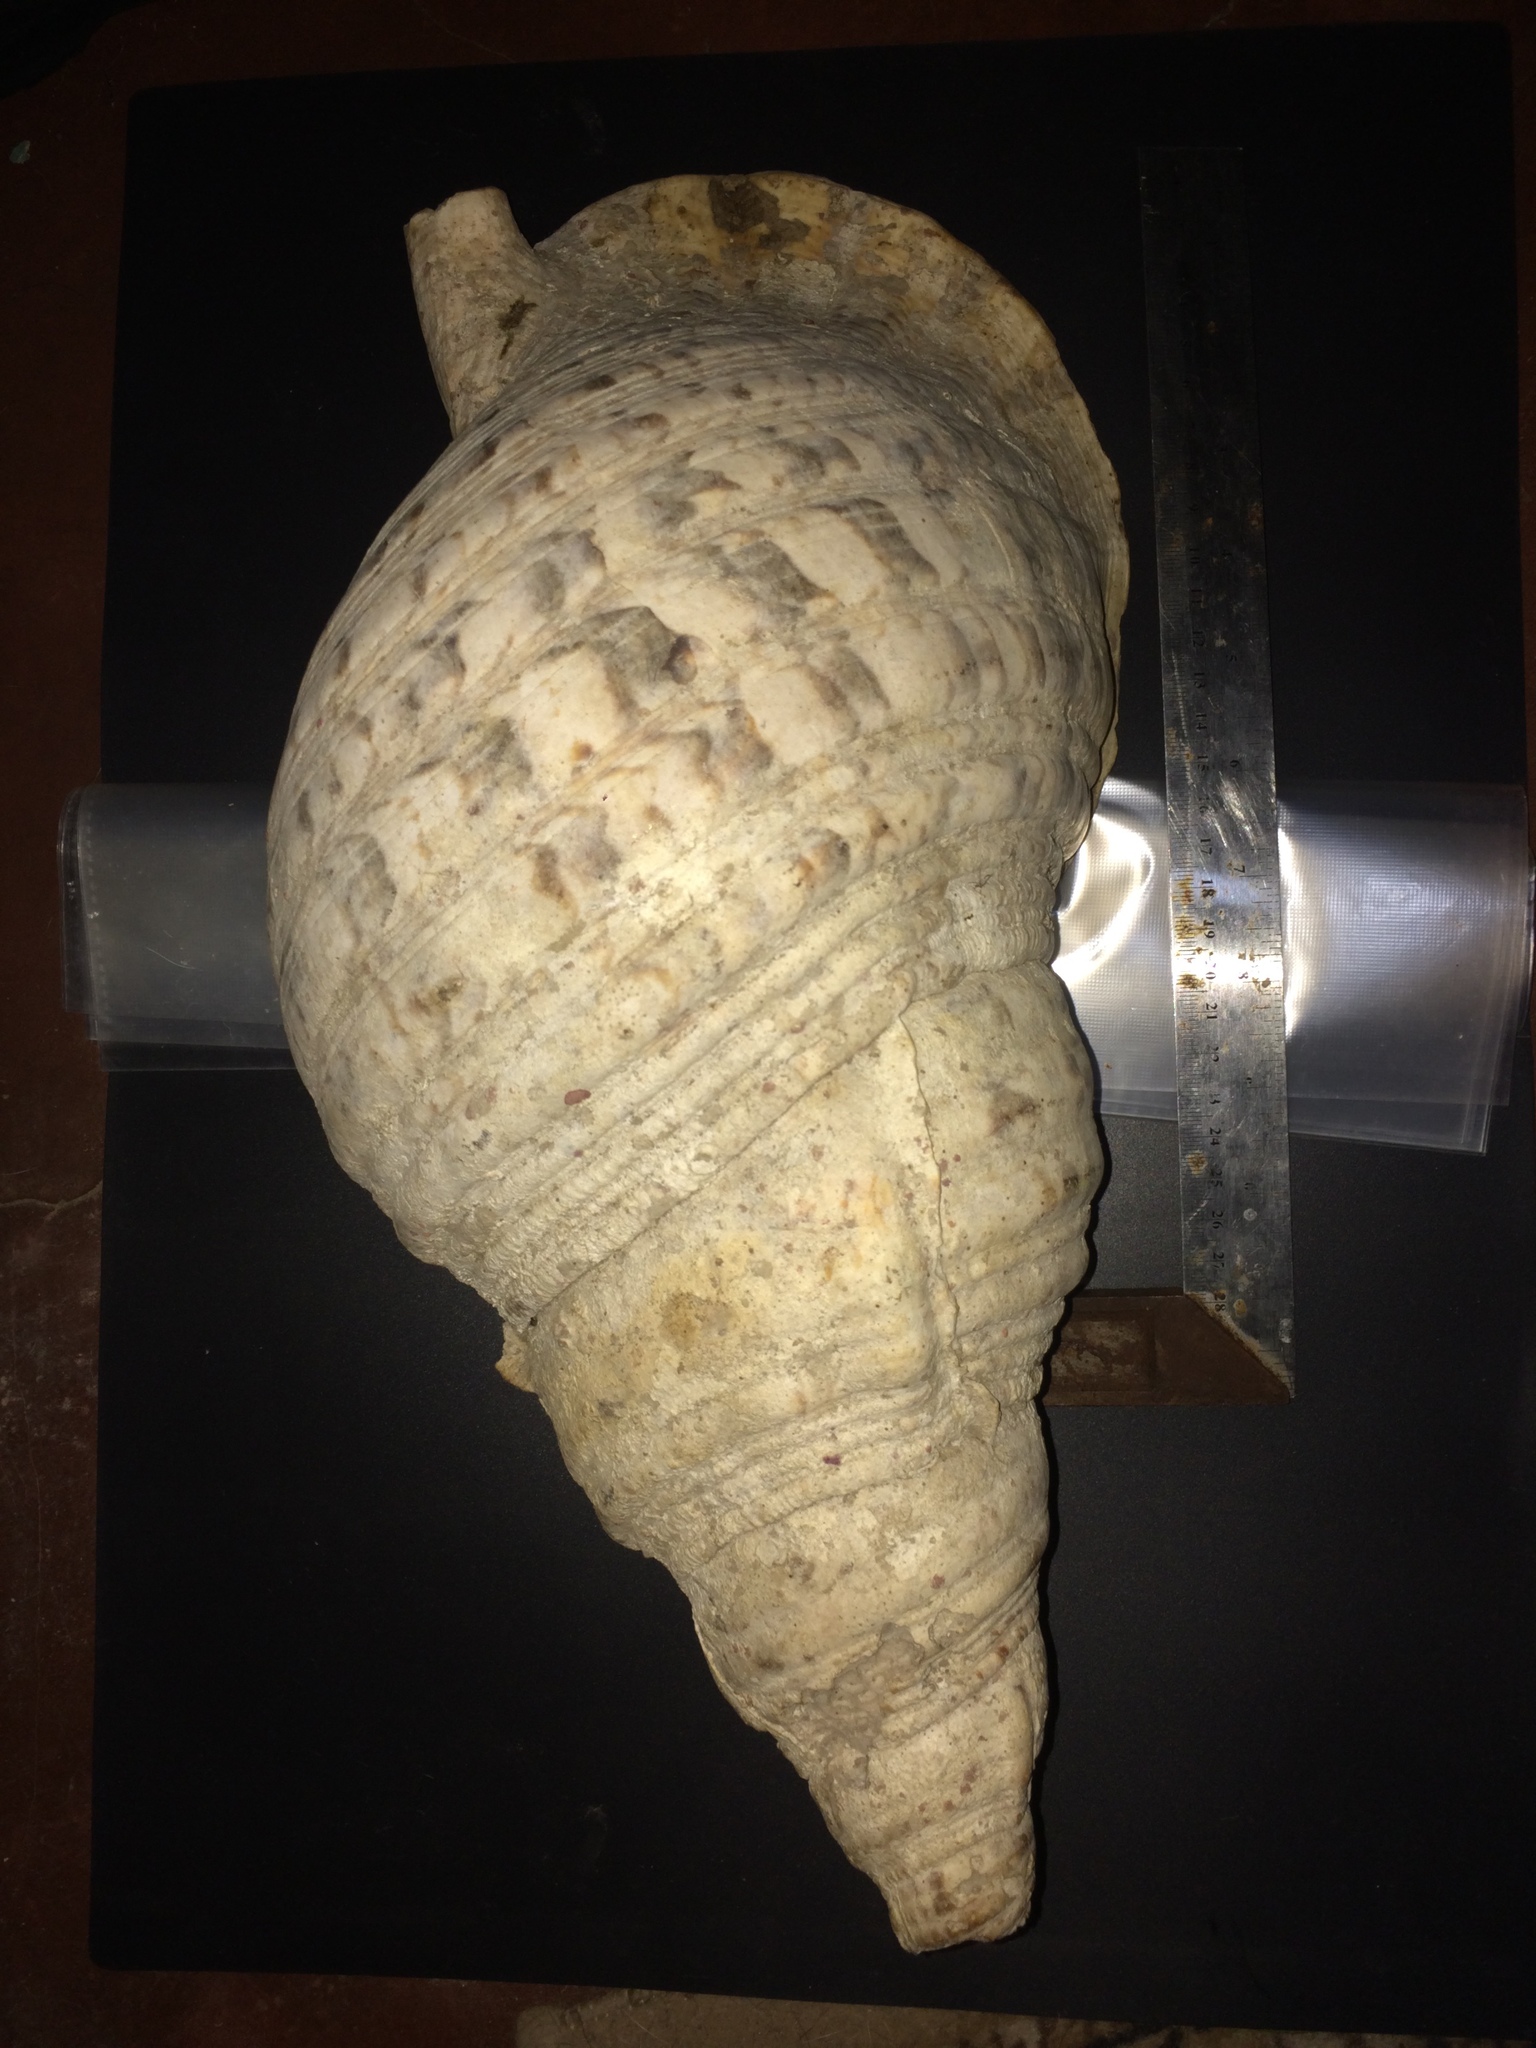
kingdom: Animalia
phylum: Mollusca
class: Gastropoda
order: Littorinimorpha
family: Charoniidae
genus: Charonia
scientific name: Charonia tritonis
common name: Pacific triton
